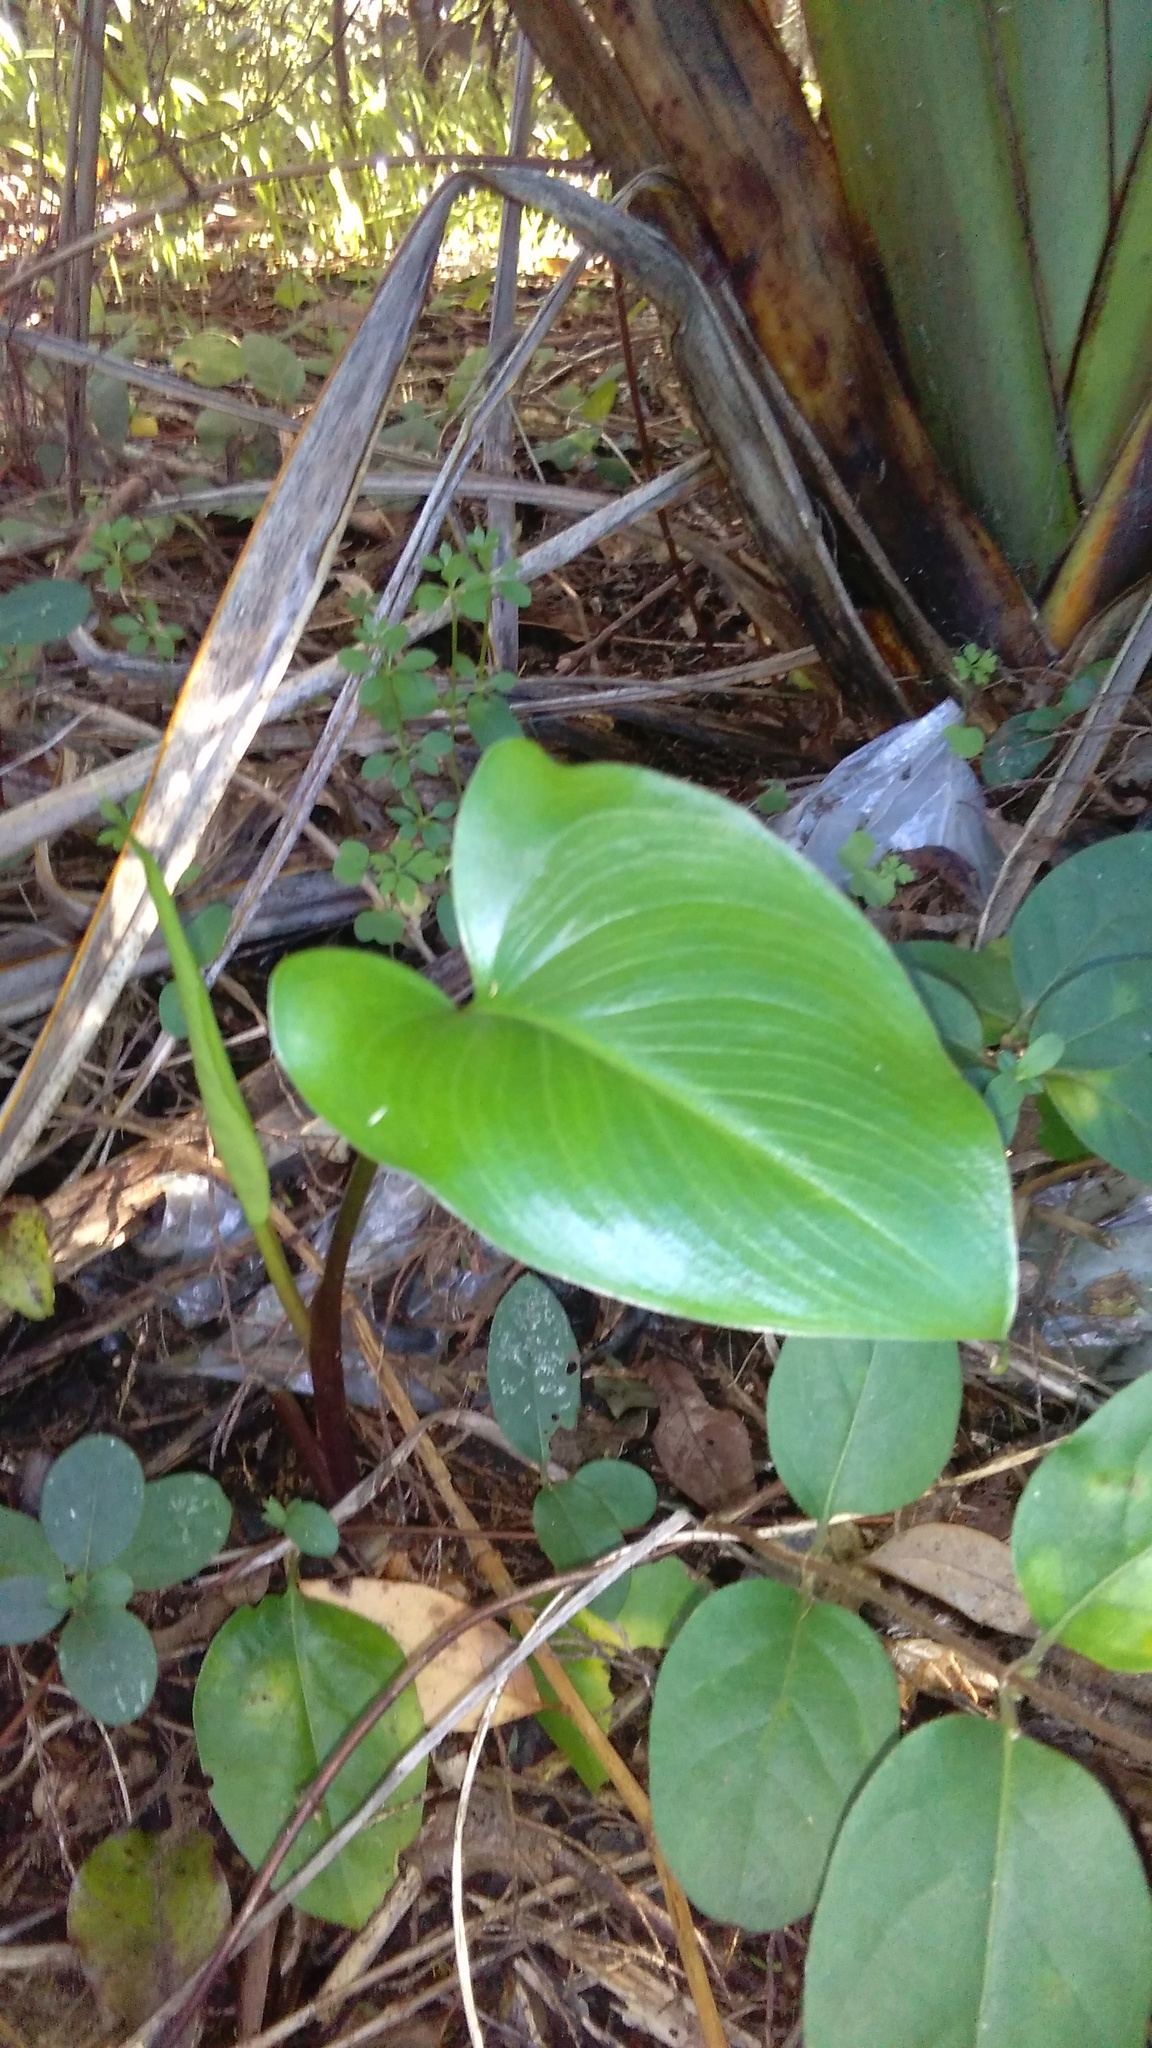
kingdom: Plantae
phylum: Tracheophyta
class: Liliopsida
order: Alismatales
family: Araceae
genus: Zantedeschia
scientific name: Zantedeschia aethiopica
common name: Altar-lily
